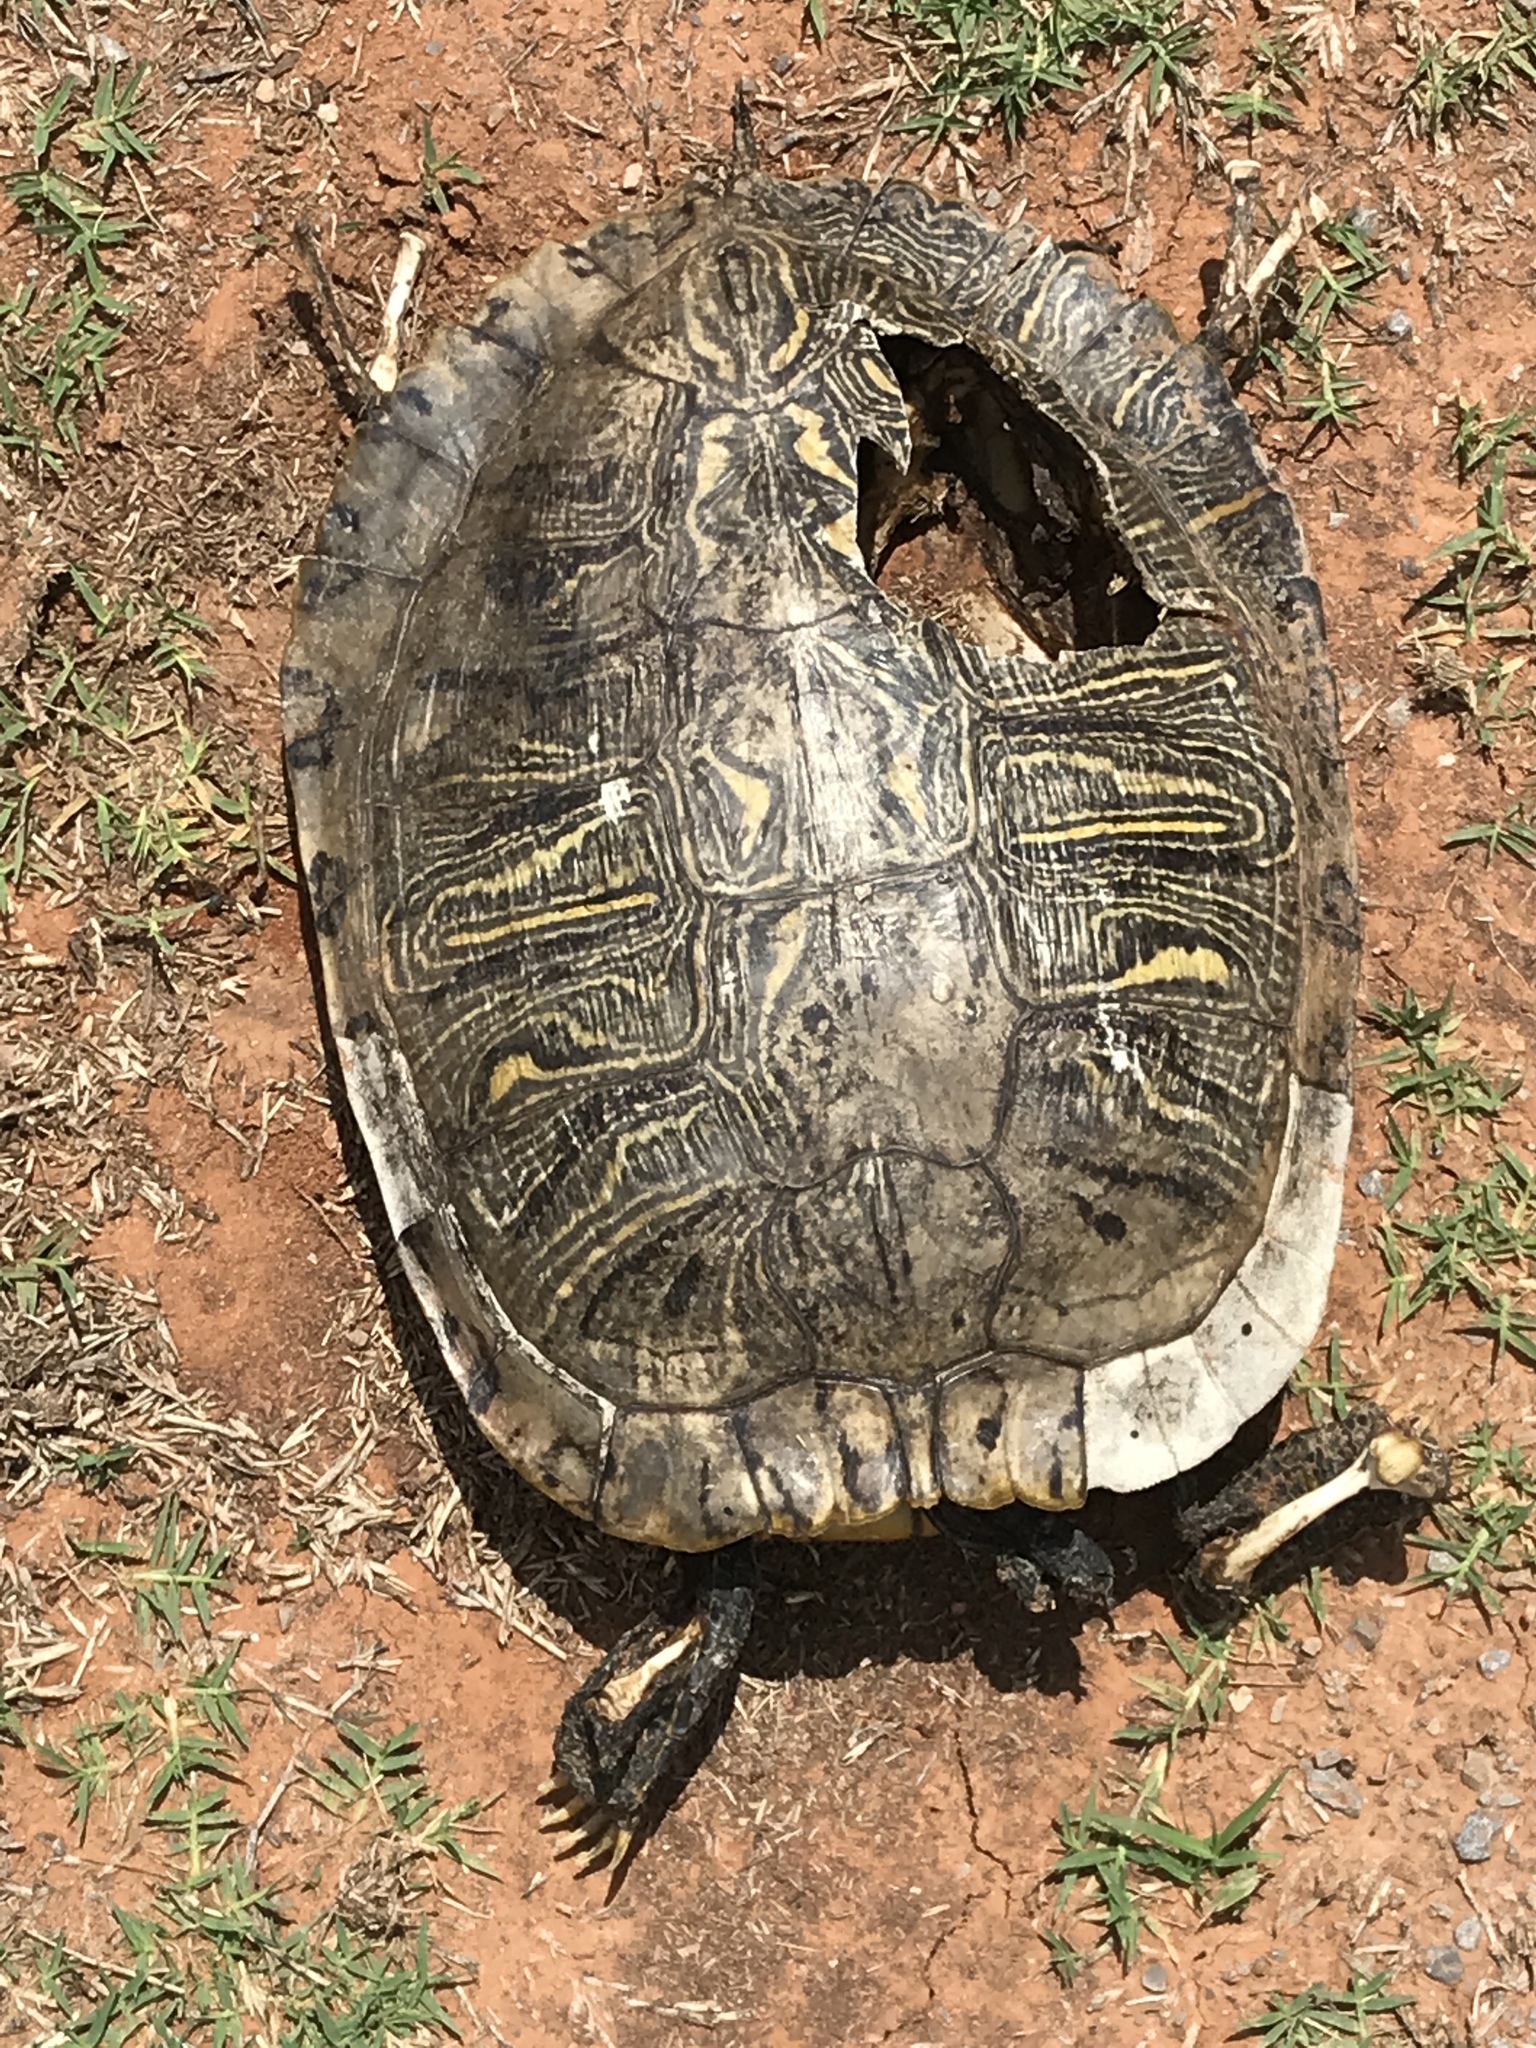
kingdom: Animalia
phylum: Chordata
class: Testudines
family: Emydidae
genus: Trachemys
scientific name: Trachemys scripta
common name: Slider
